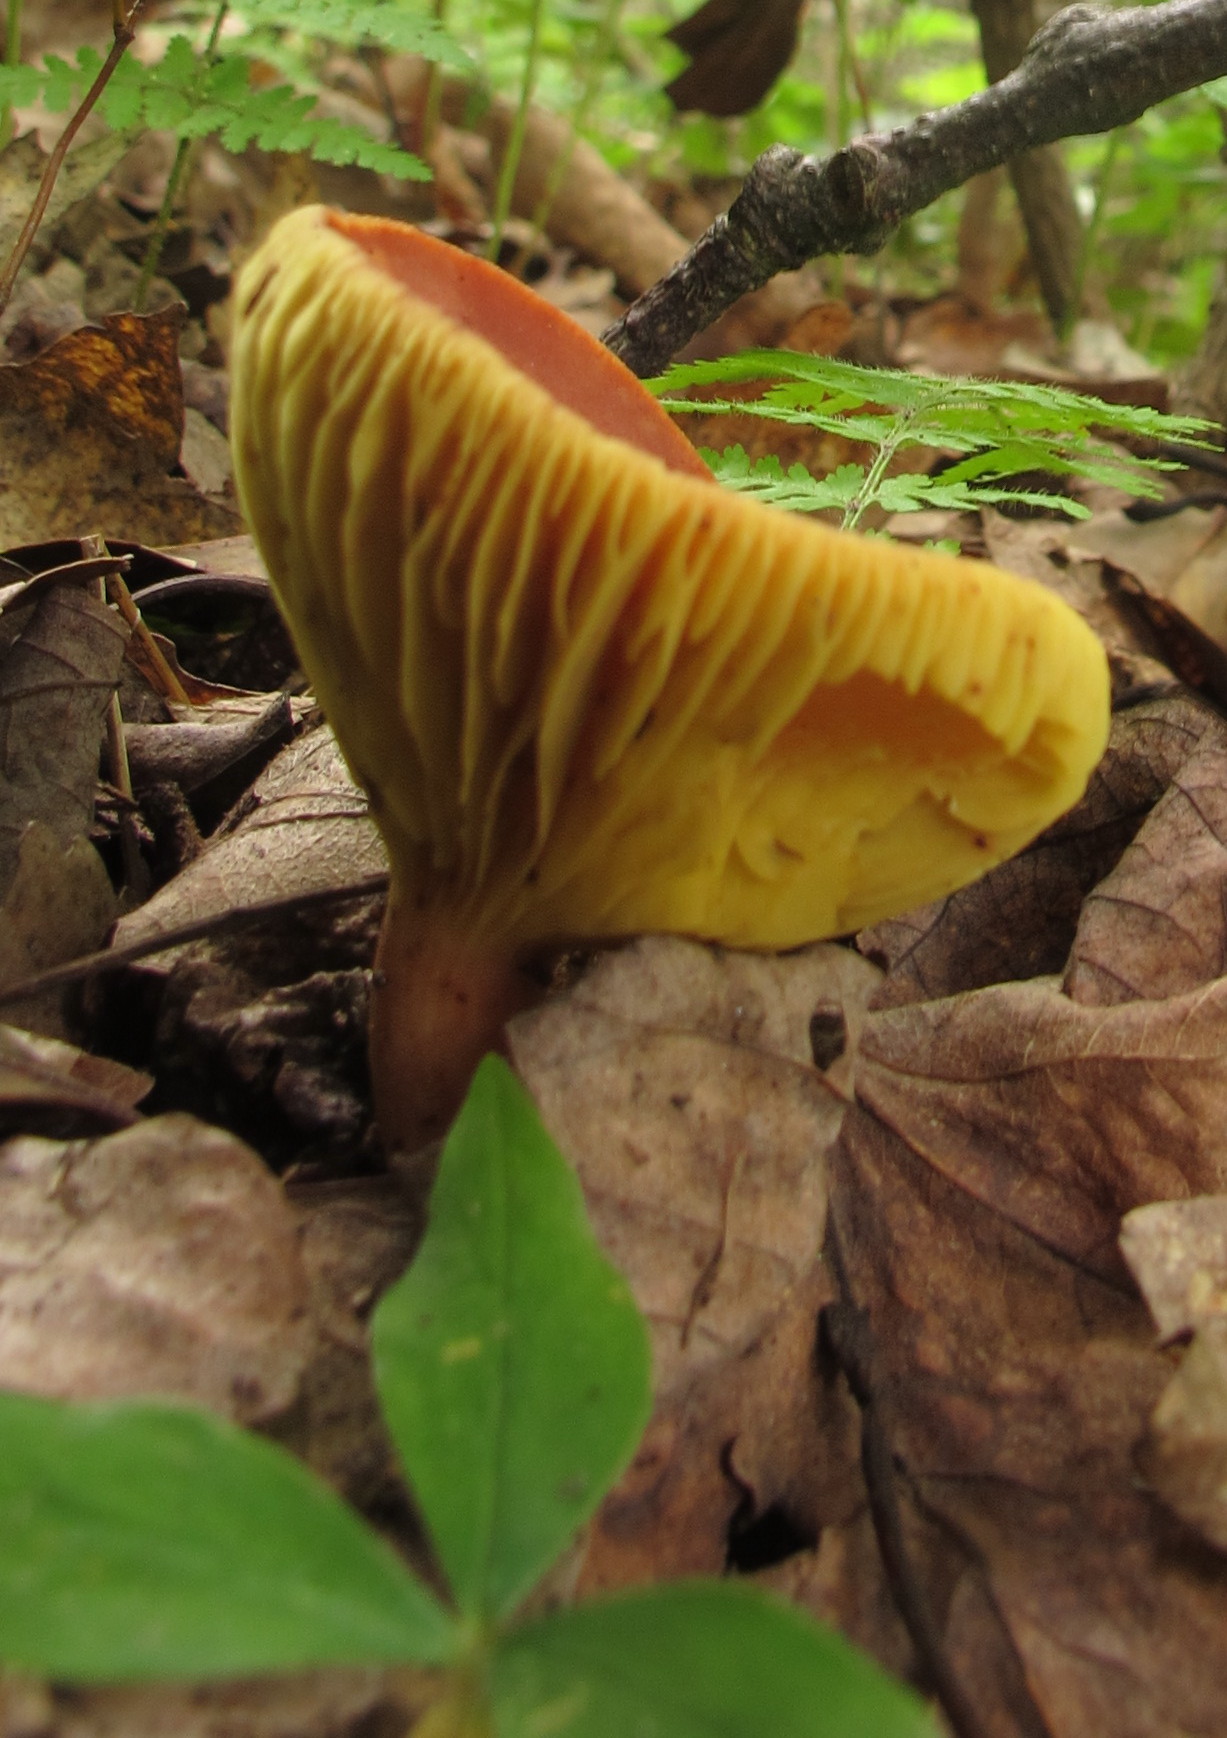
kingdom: Fungi
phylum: Basidiomycota
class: Agaricomycetes
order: Boletales
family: Boletaceae
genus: Phylloporus
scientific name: Phylloporus rhodoxanthus
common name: Golden gilled bolete
